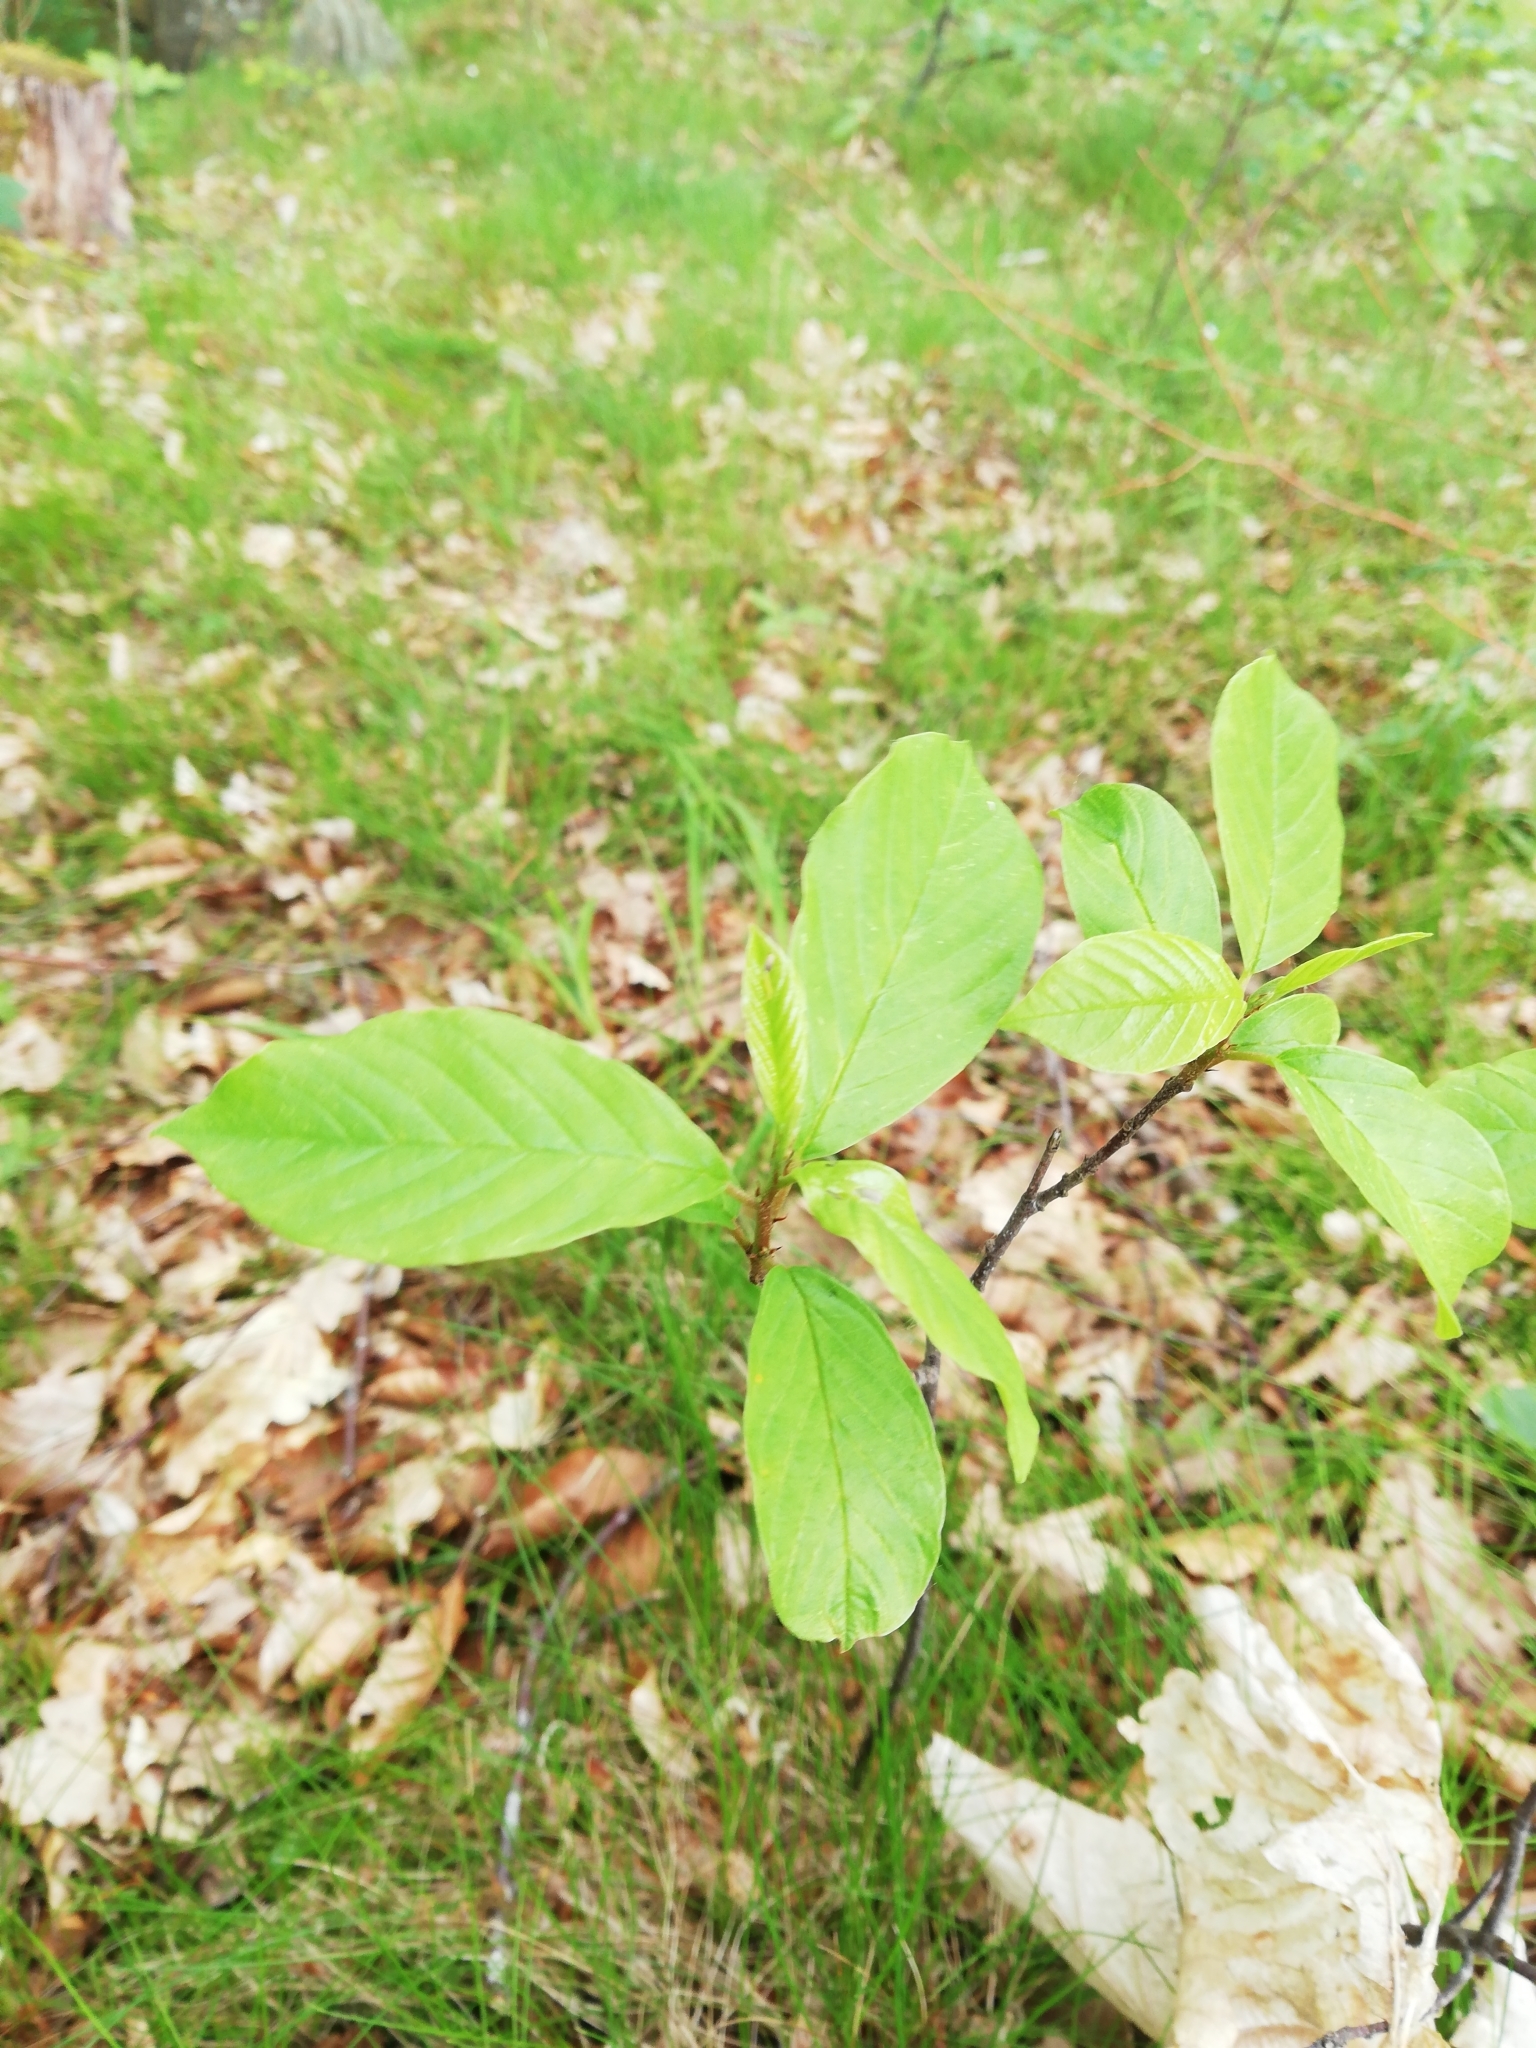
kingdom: Plantae
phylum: Tracheophyta
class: Magnoliopsida
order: Rosales
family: Rhamnaceae
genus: Frangula
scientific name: Frangula alnus
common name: Alder buckthorn
